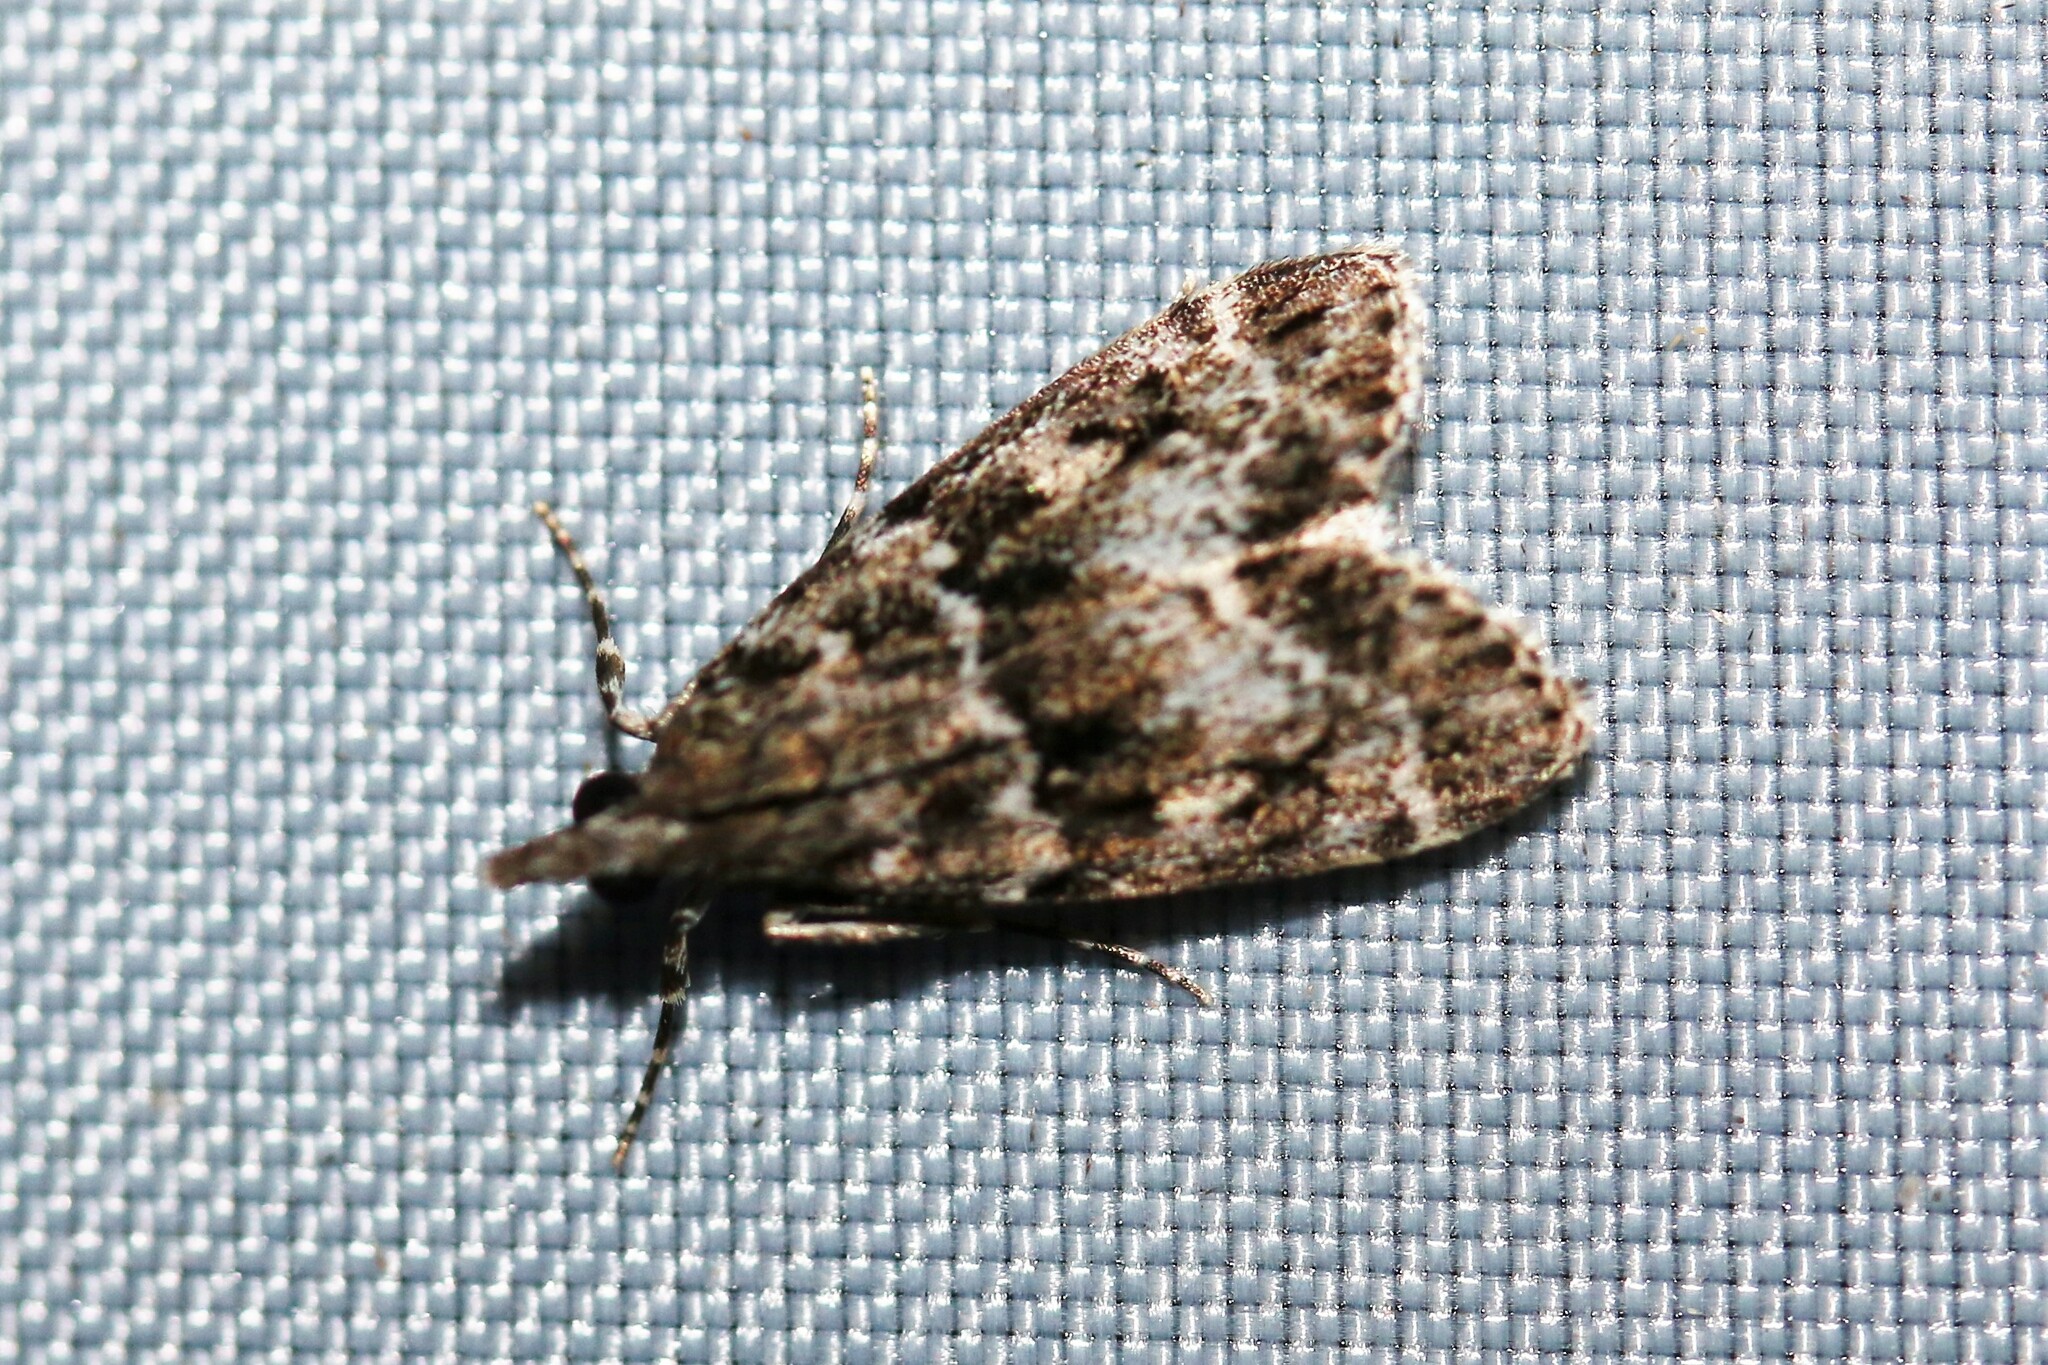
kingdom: Animalia
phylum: Arthropoda
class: Insecta
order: Lepidoptera
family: Crambidae
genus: Eudonia
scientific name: Eudonia mercurella
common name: Small grey
